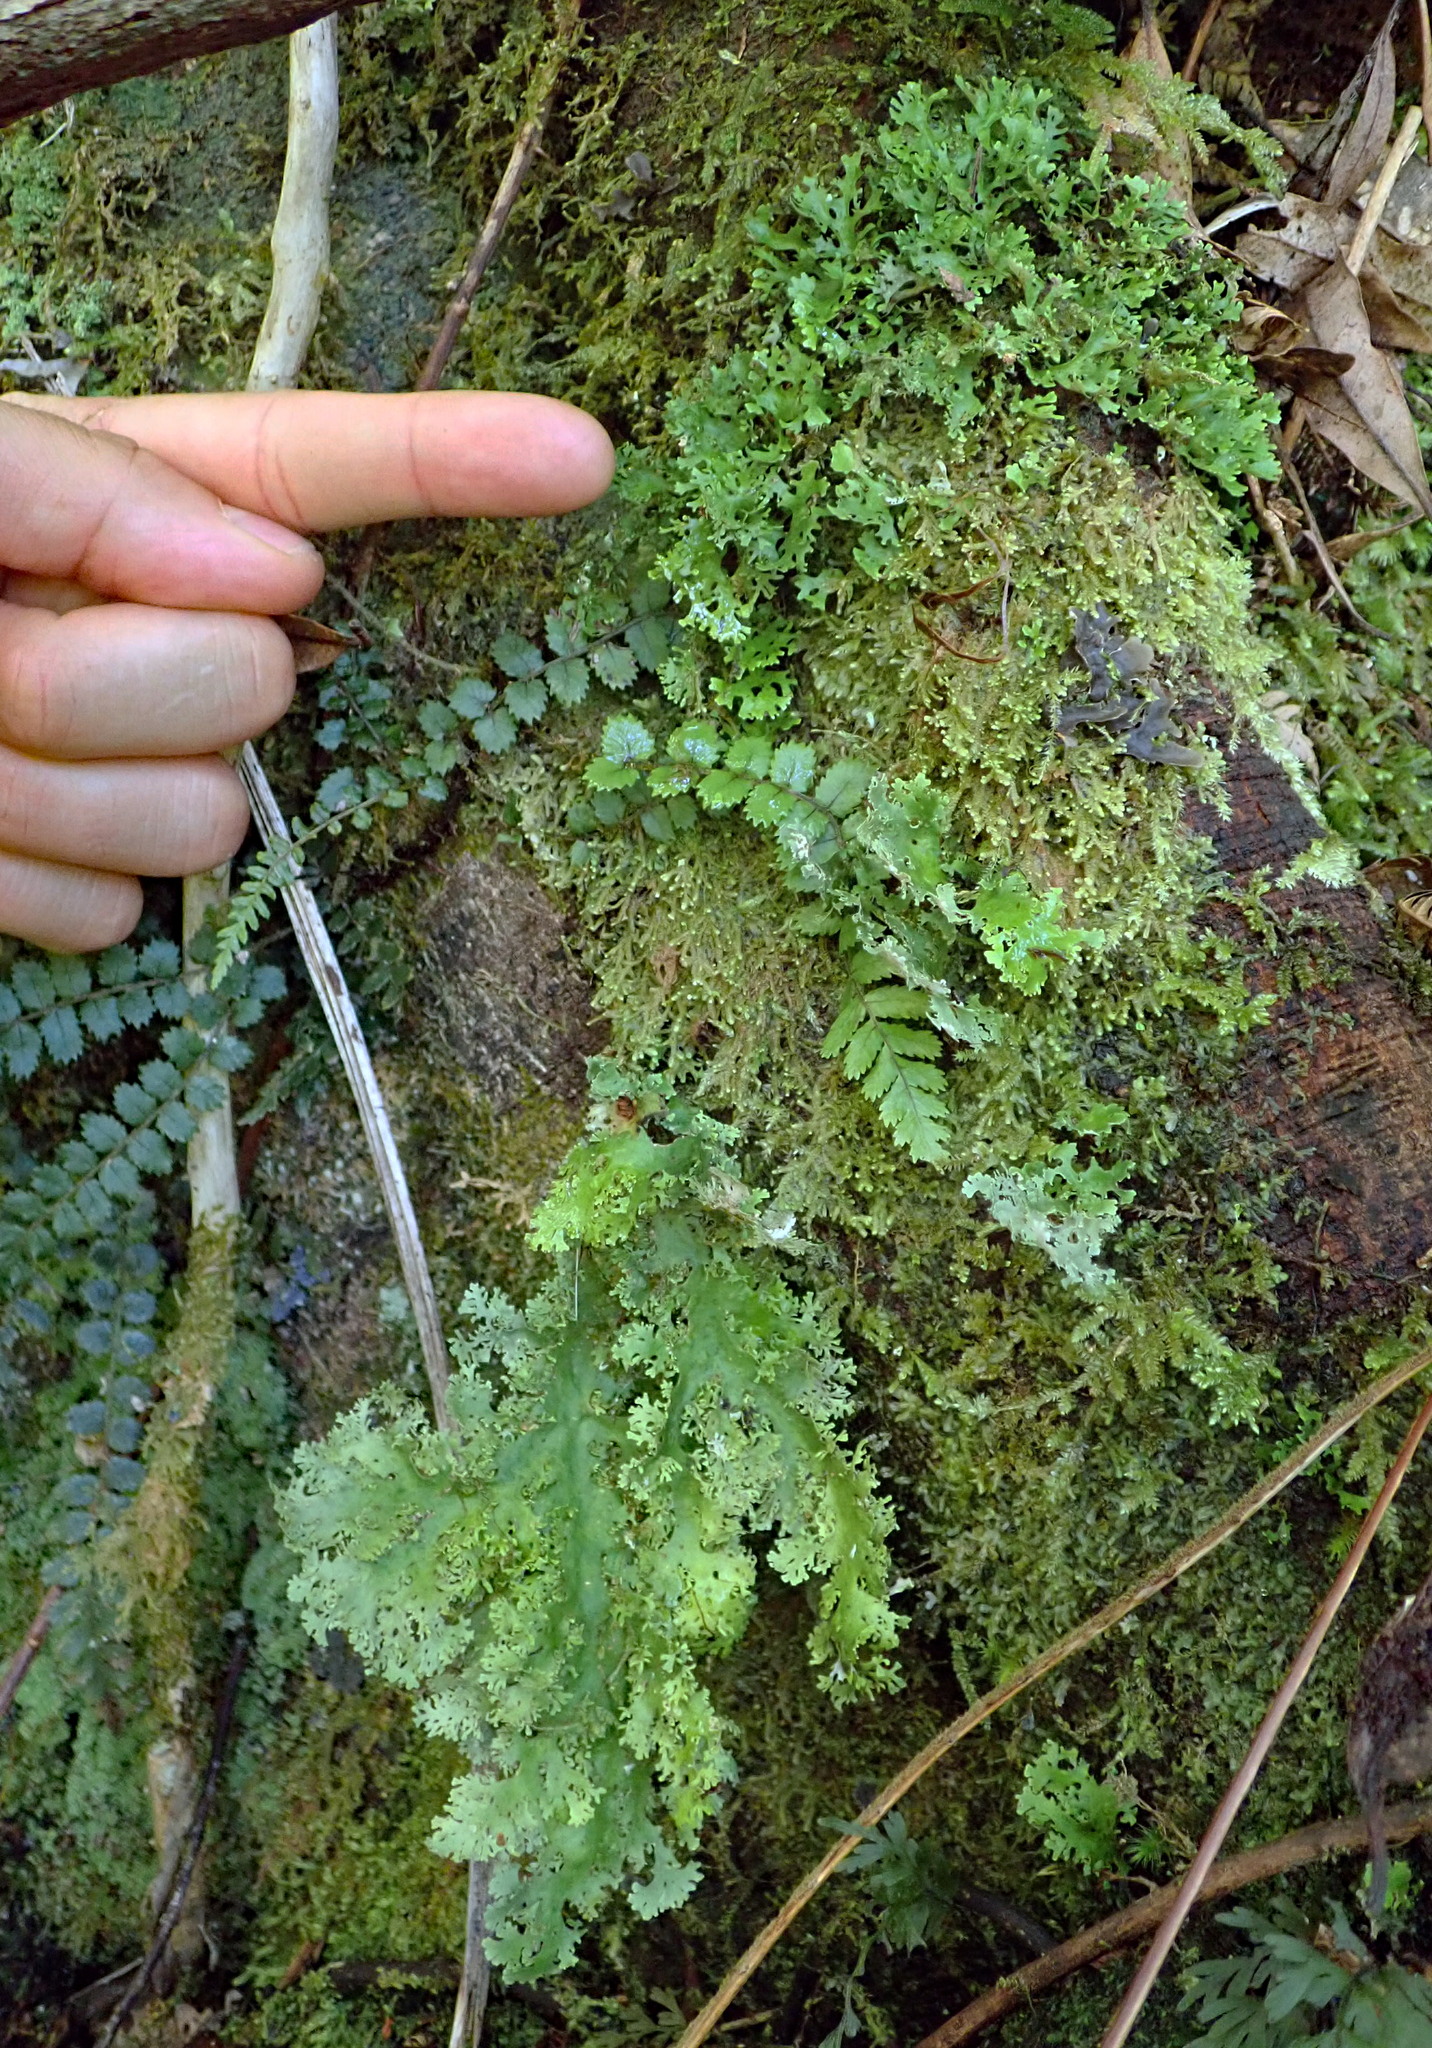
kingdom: Fungi
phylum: Ascomycota
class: Lecanoromycetes
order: Peltigerales
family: Lobariaceae
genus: Sticta
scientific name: Sticta filix
